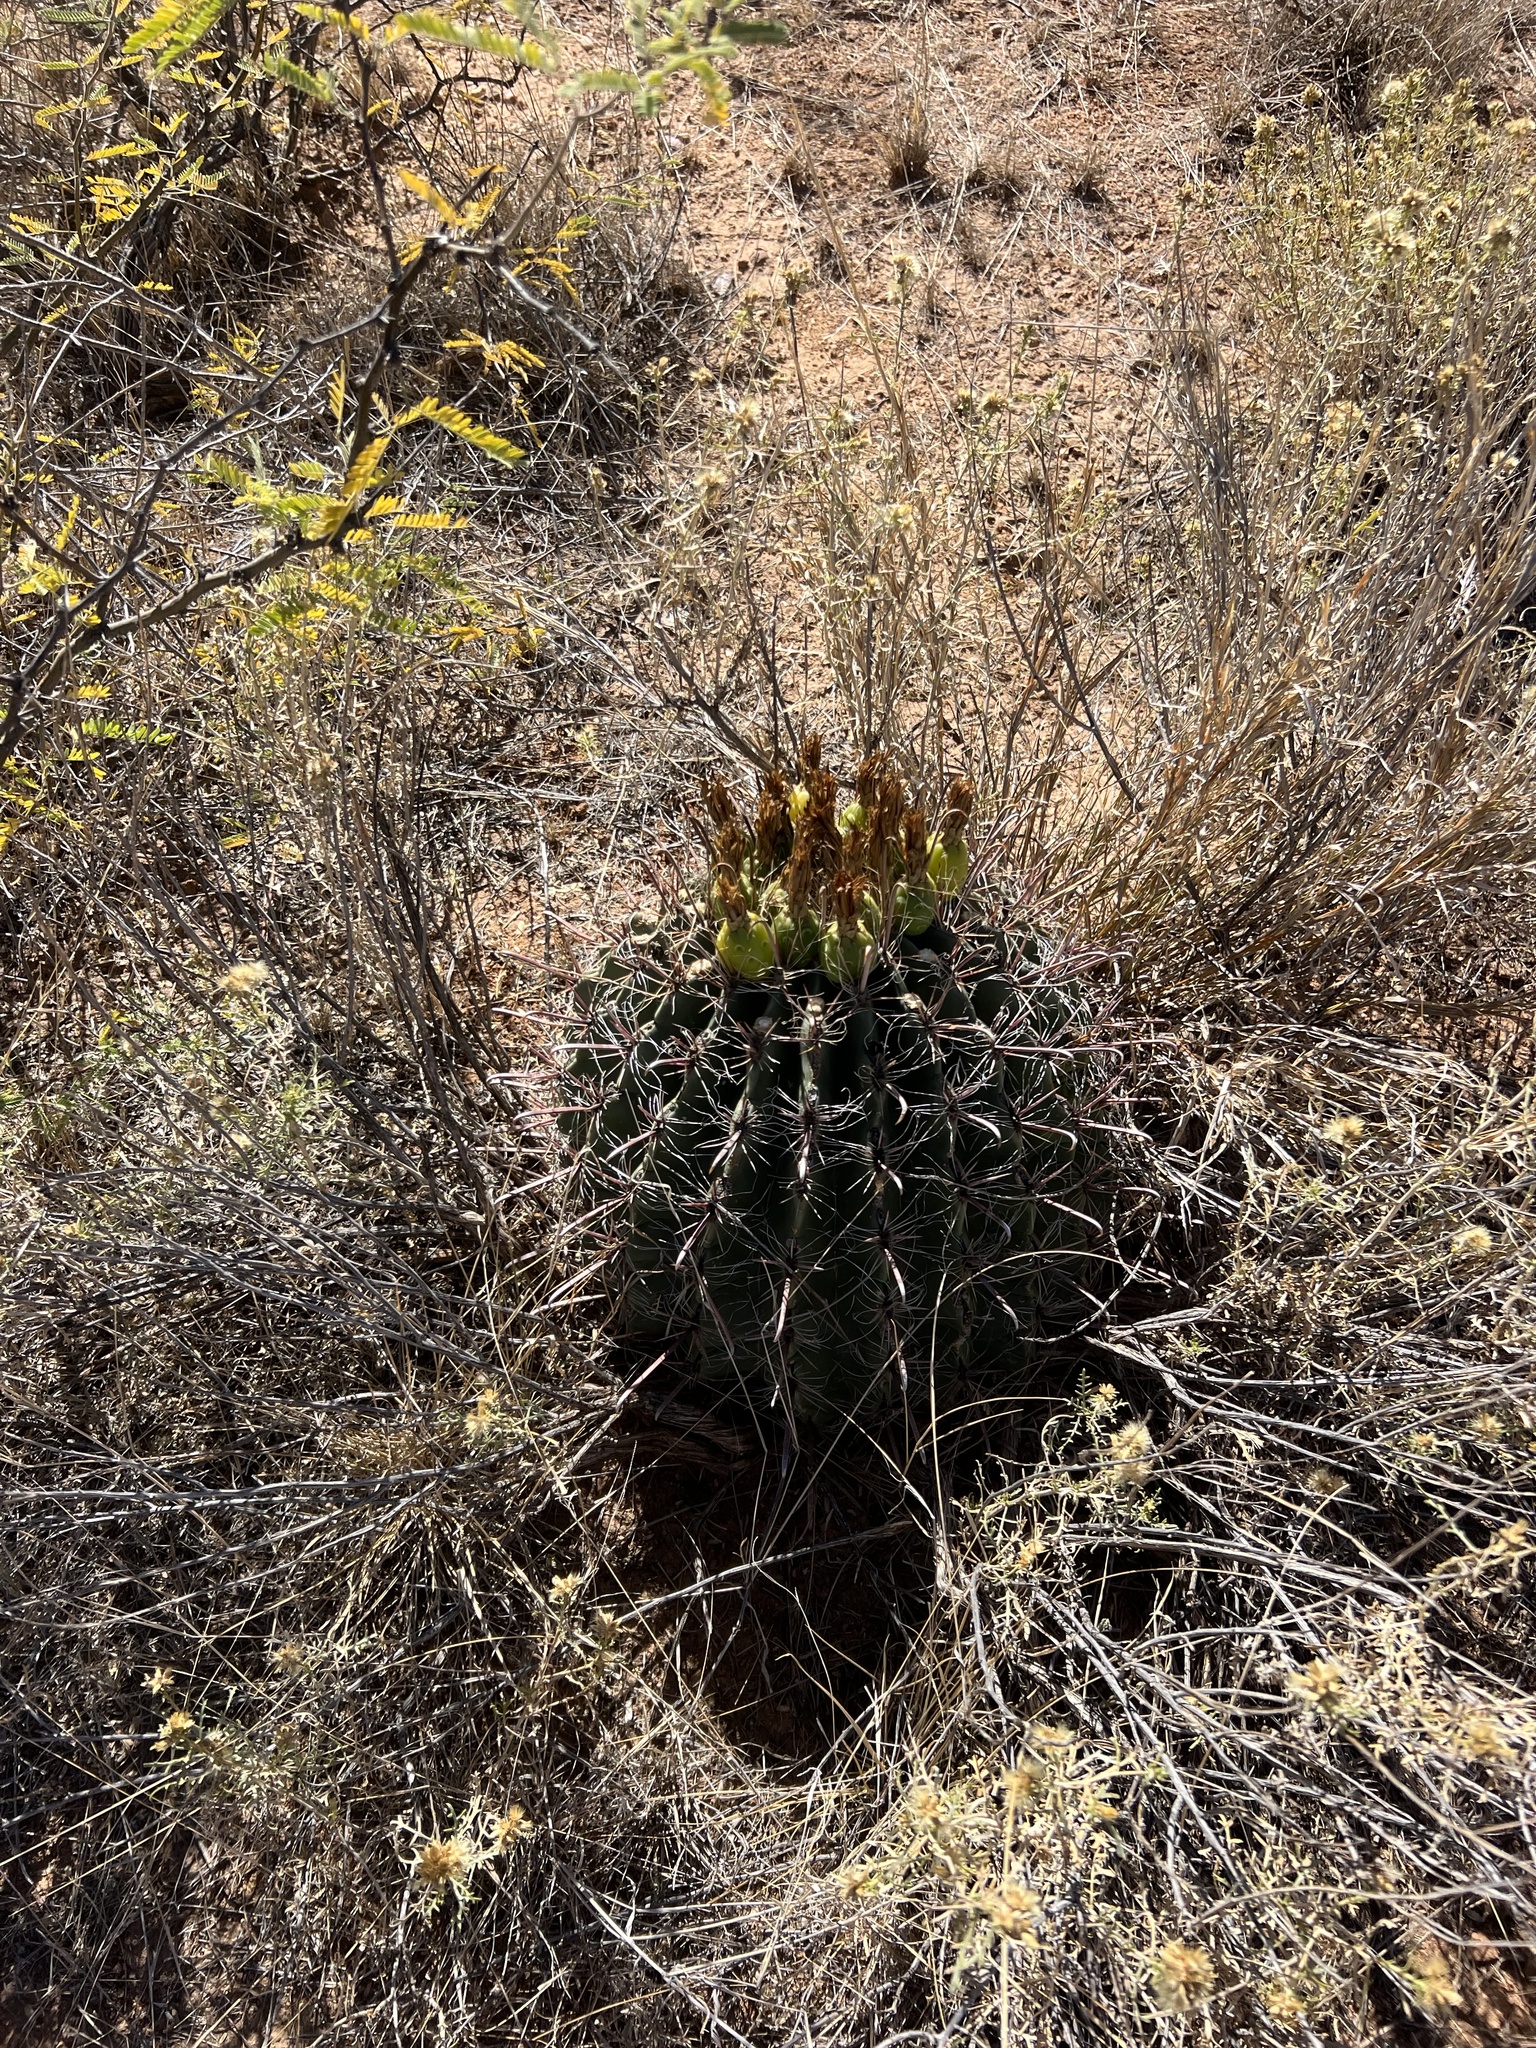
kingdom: Plantae
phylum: Tracheophyta
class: Magnoliopsida
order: Caryophyllales
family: Cactaceae
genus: Ferocactus
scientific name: Ferocactus wislizeni
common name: Candy barrel cactus
